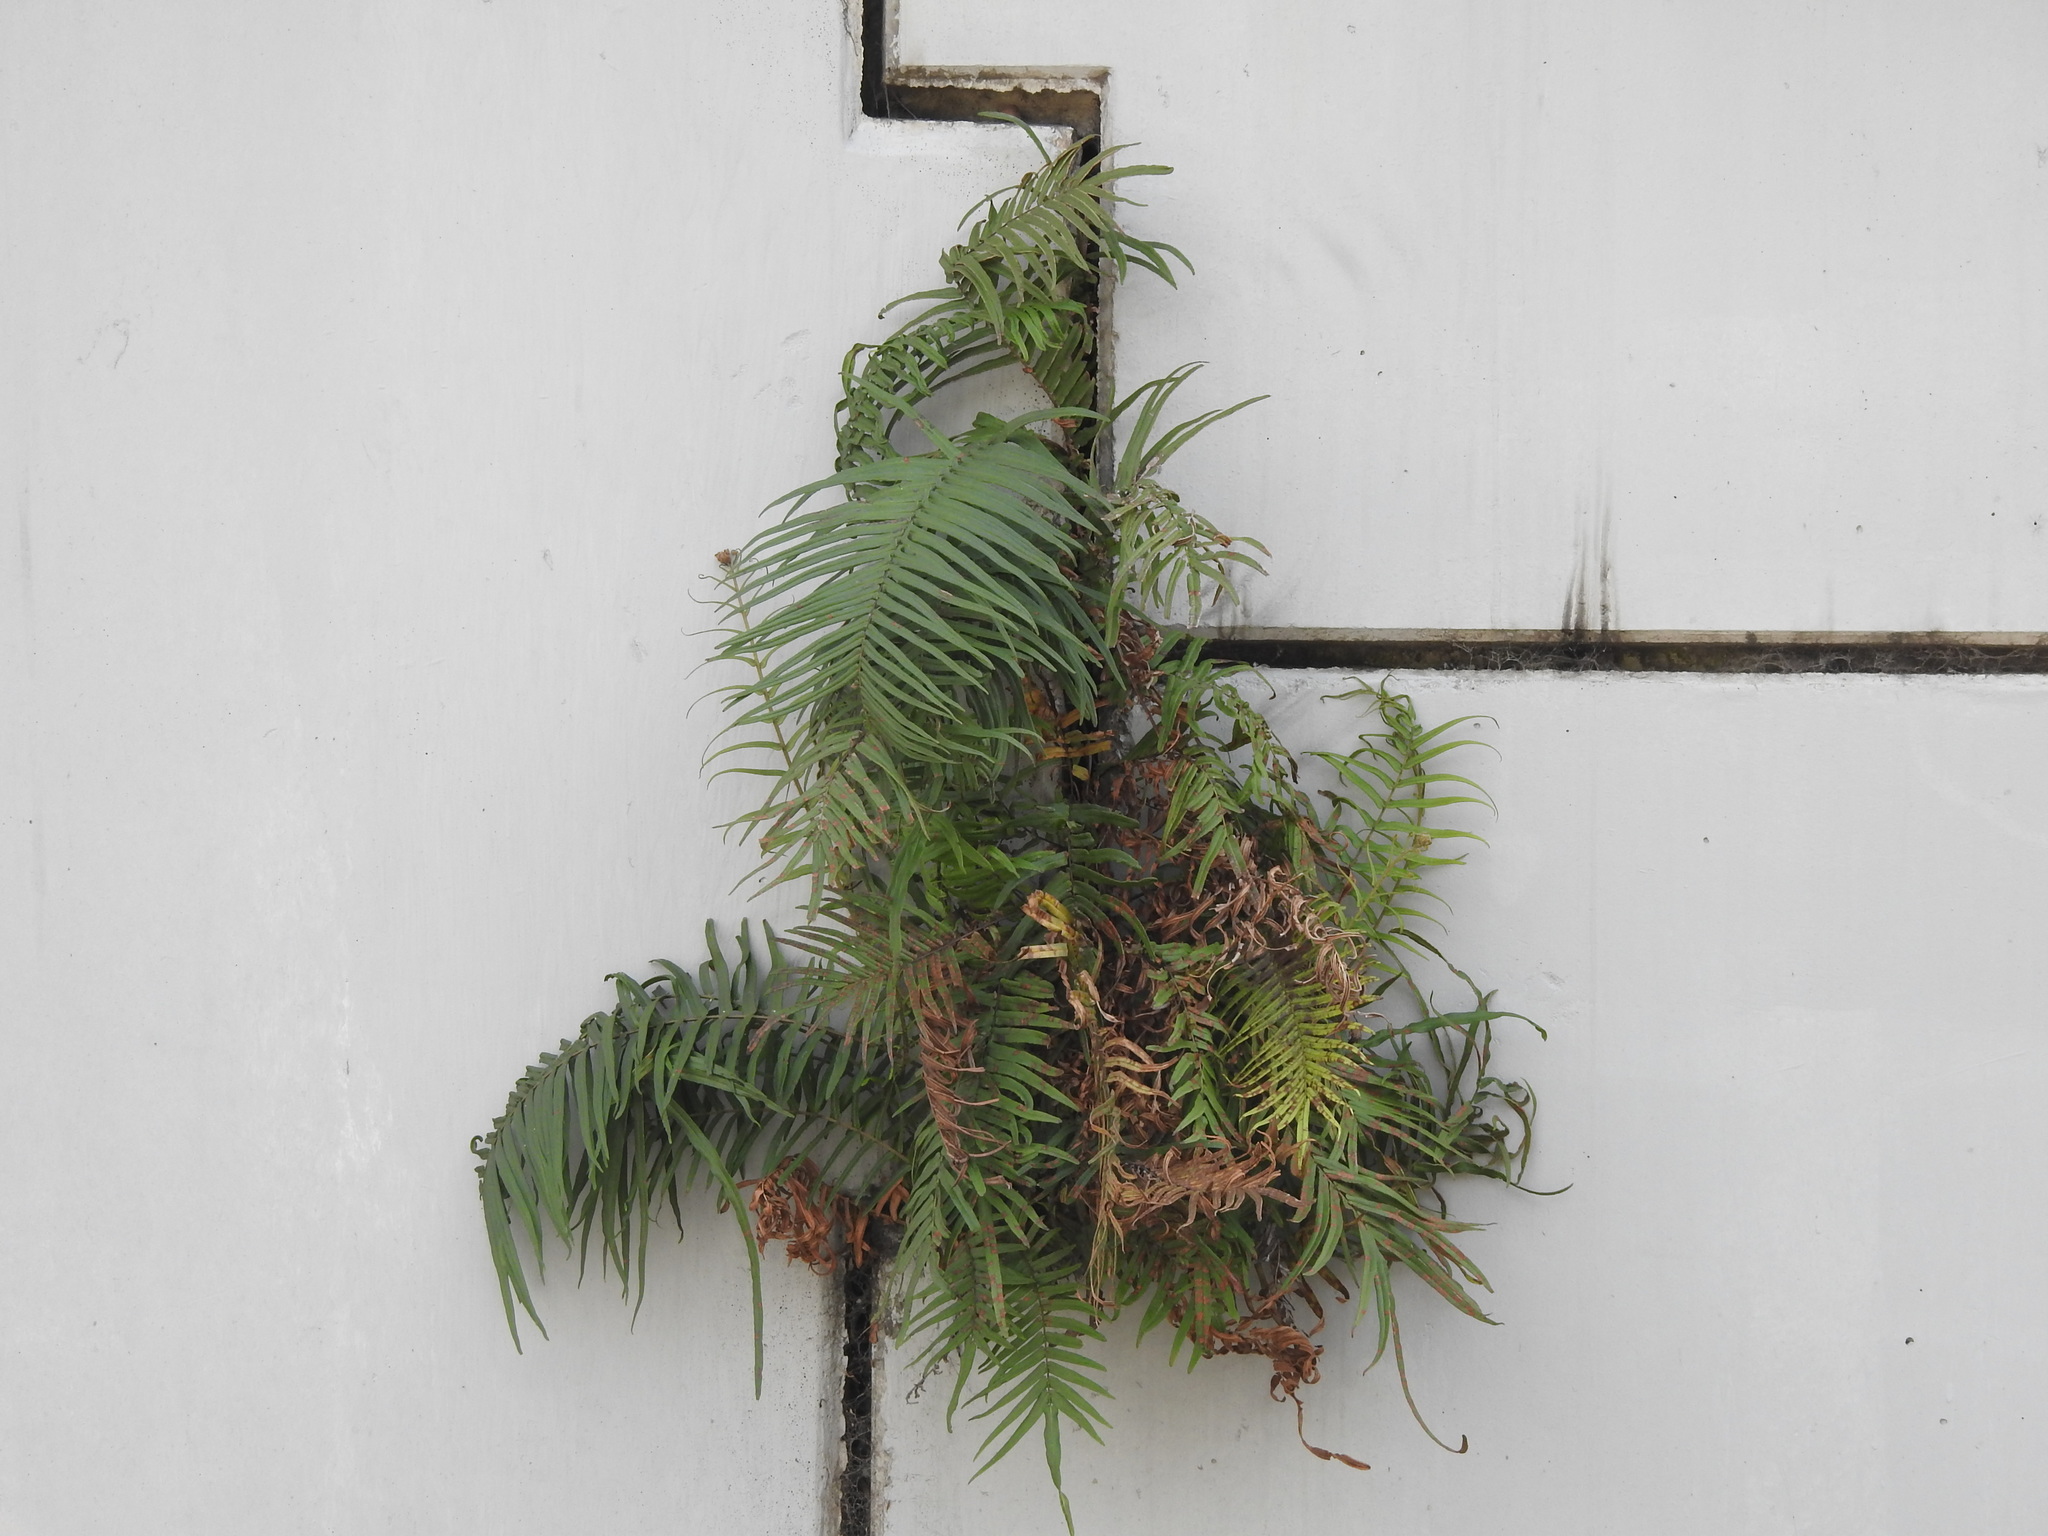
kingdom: Plantae
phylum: Tracheophyta
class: Polypodiopsida
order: Polypodiales
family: Pteridaceae
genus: Pteris
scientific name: Pteris vittata
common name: Ladder brake
